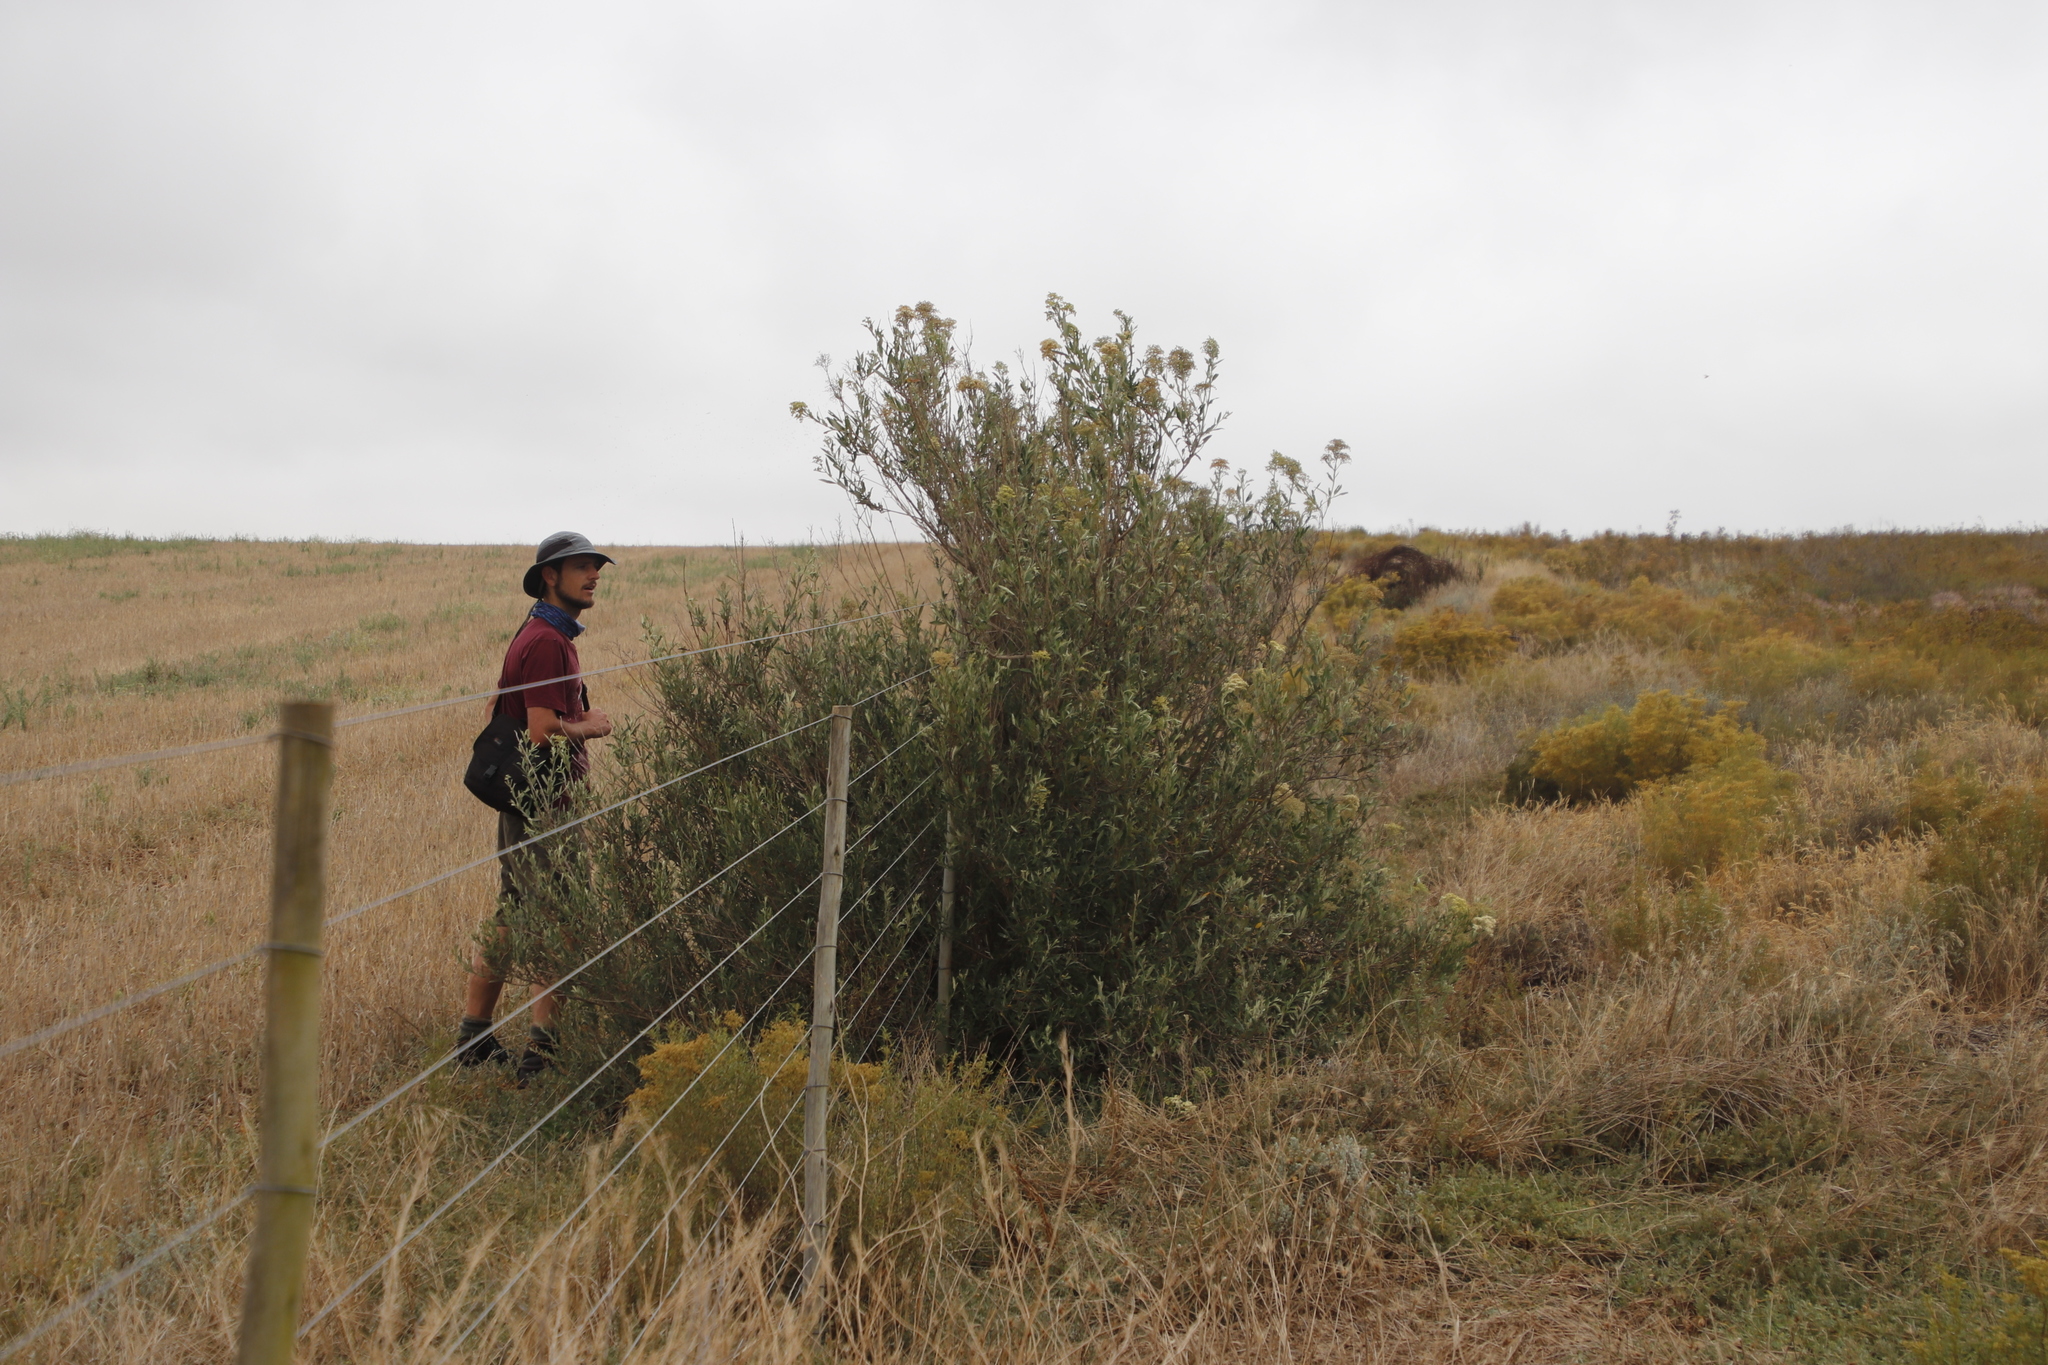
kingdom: Plantae
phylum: Tracheophyta
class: Magnoliopsida
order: Lamiales
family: Scrophulariaceae
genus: Buddleja
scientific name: Buddleja saligna
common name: False olive
